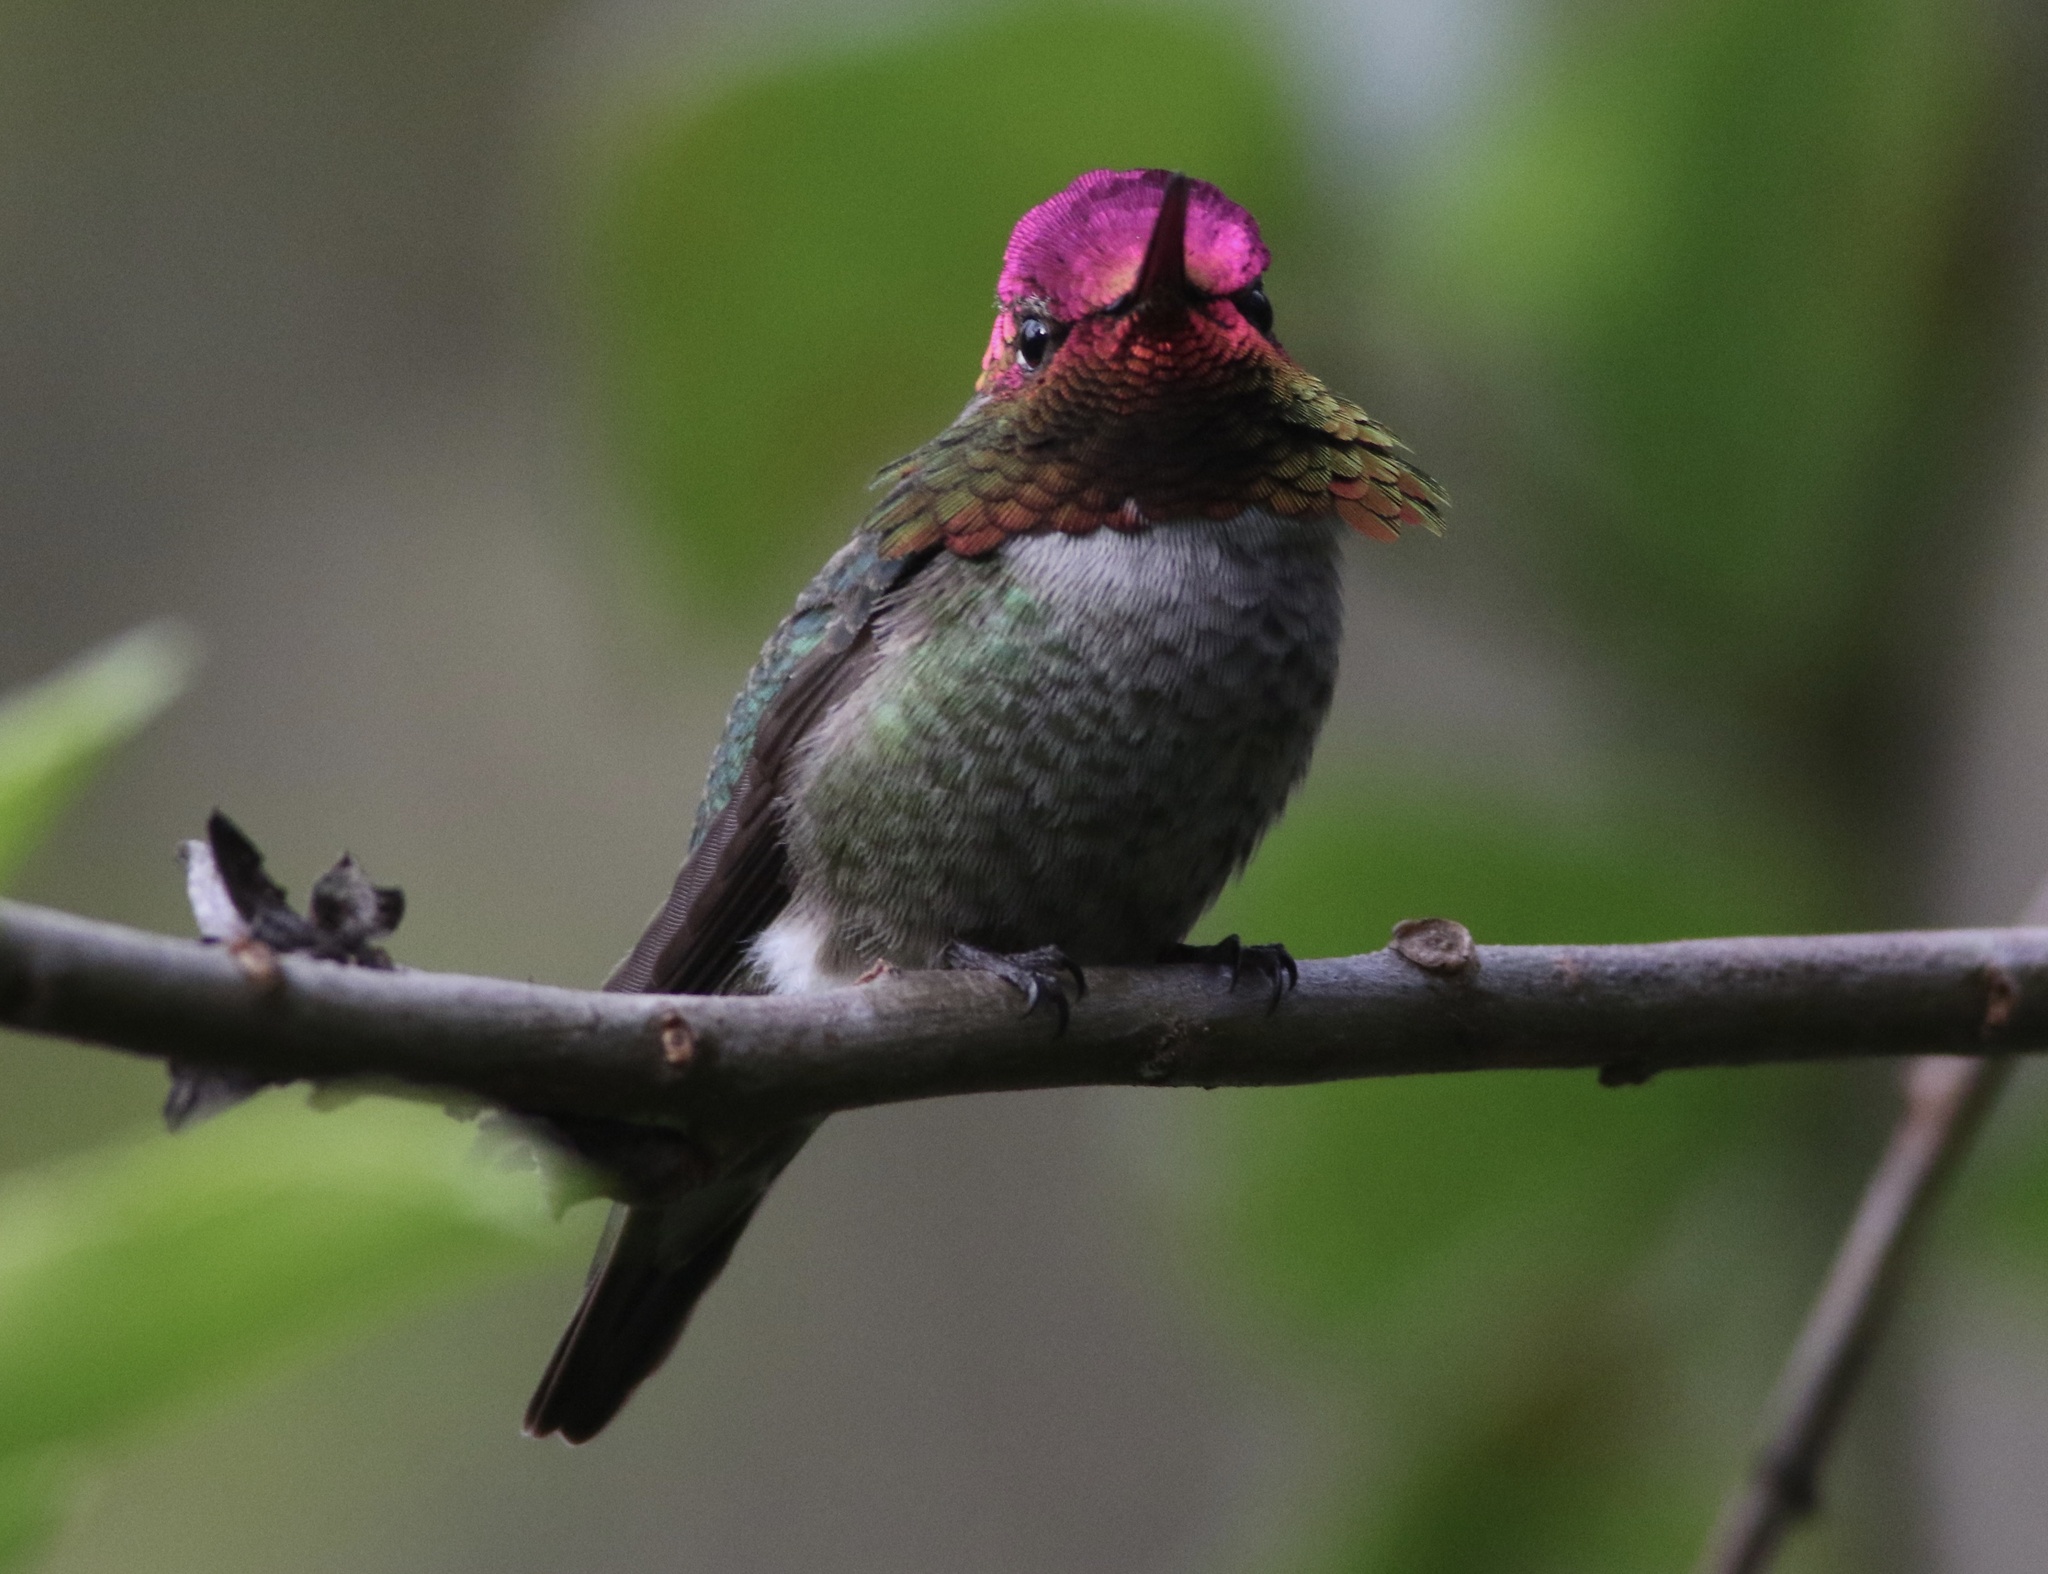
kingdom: Animalia
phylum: Chordata
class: Aves
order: Apodiformes
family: Trochilidae
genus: Calypte
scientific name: Calypte anna
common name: Anna's hummingbird
